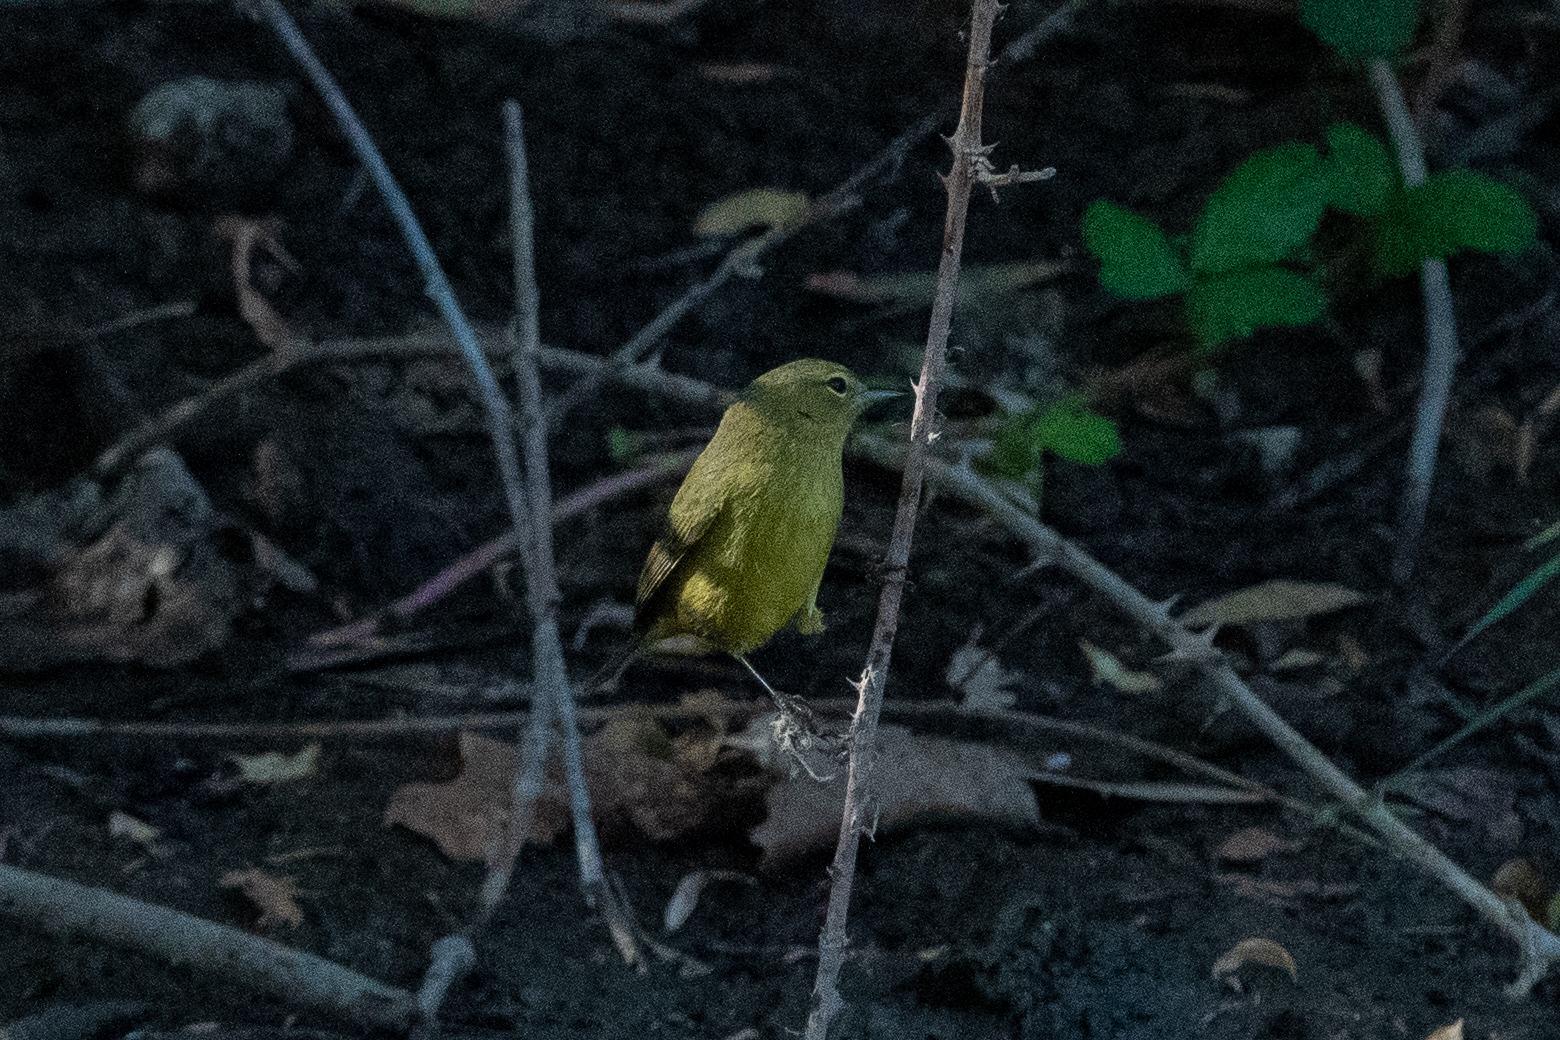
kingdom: Animalia
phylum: Chordata
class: Aves
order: Passeriformes
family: Parulidae
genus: Leiothlypis
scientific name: Leiothlypis celata
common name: Orange-crowned warbler
